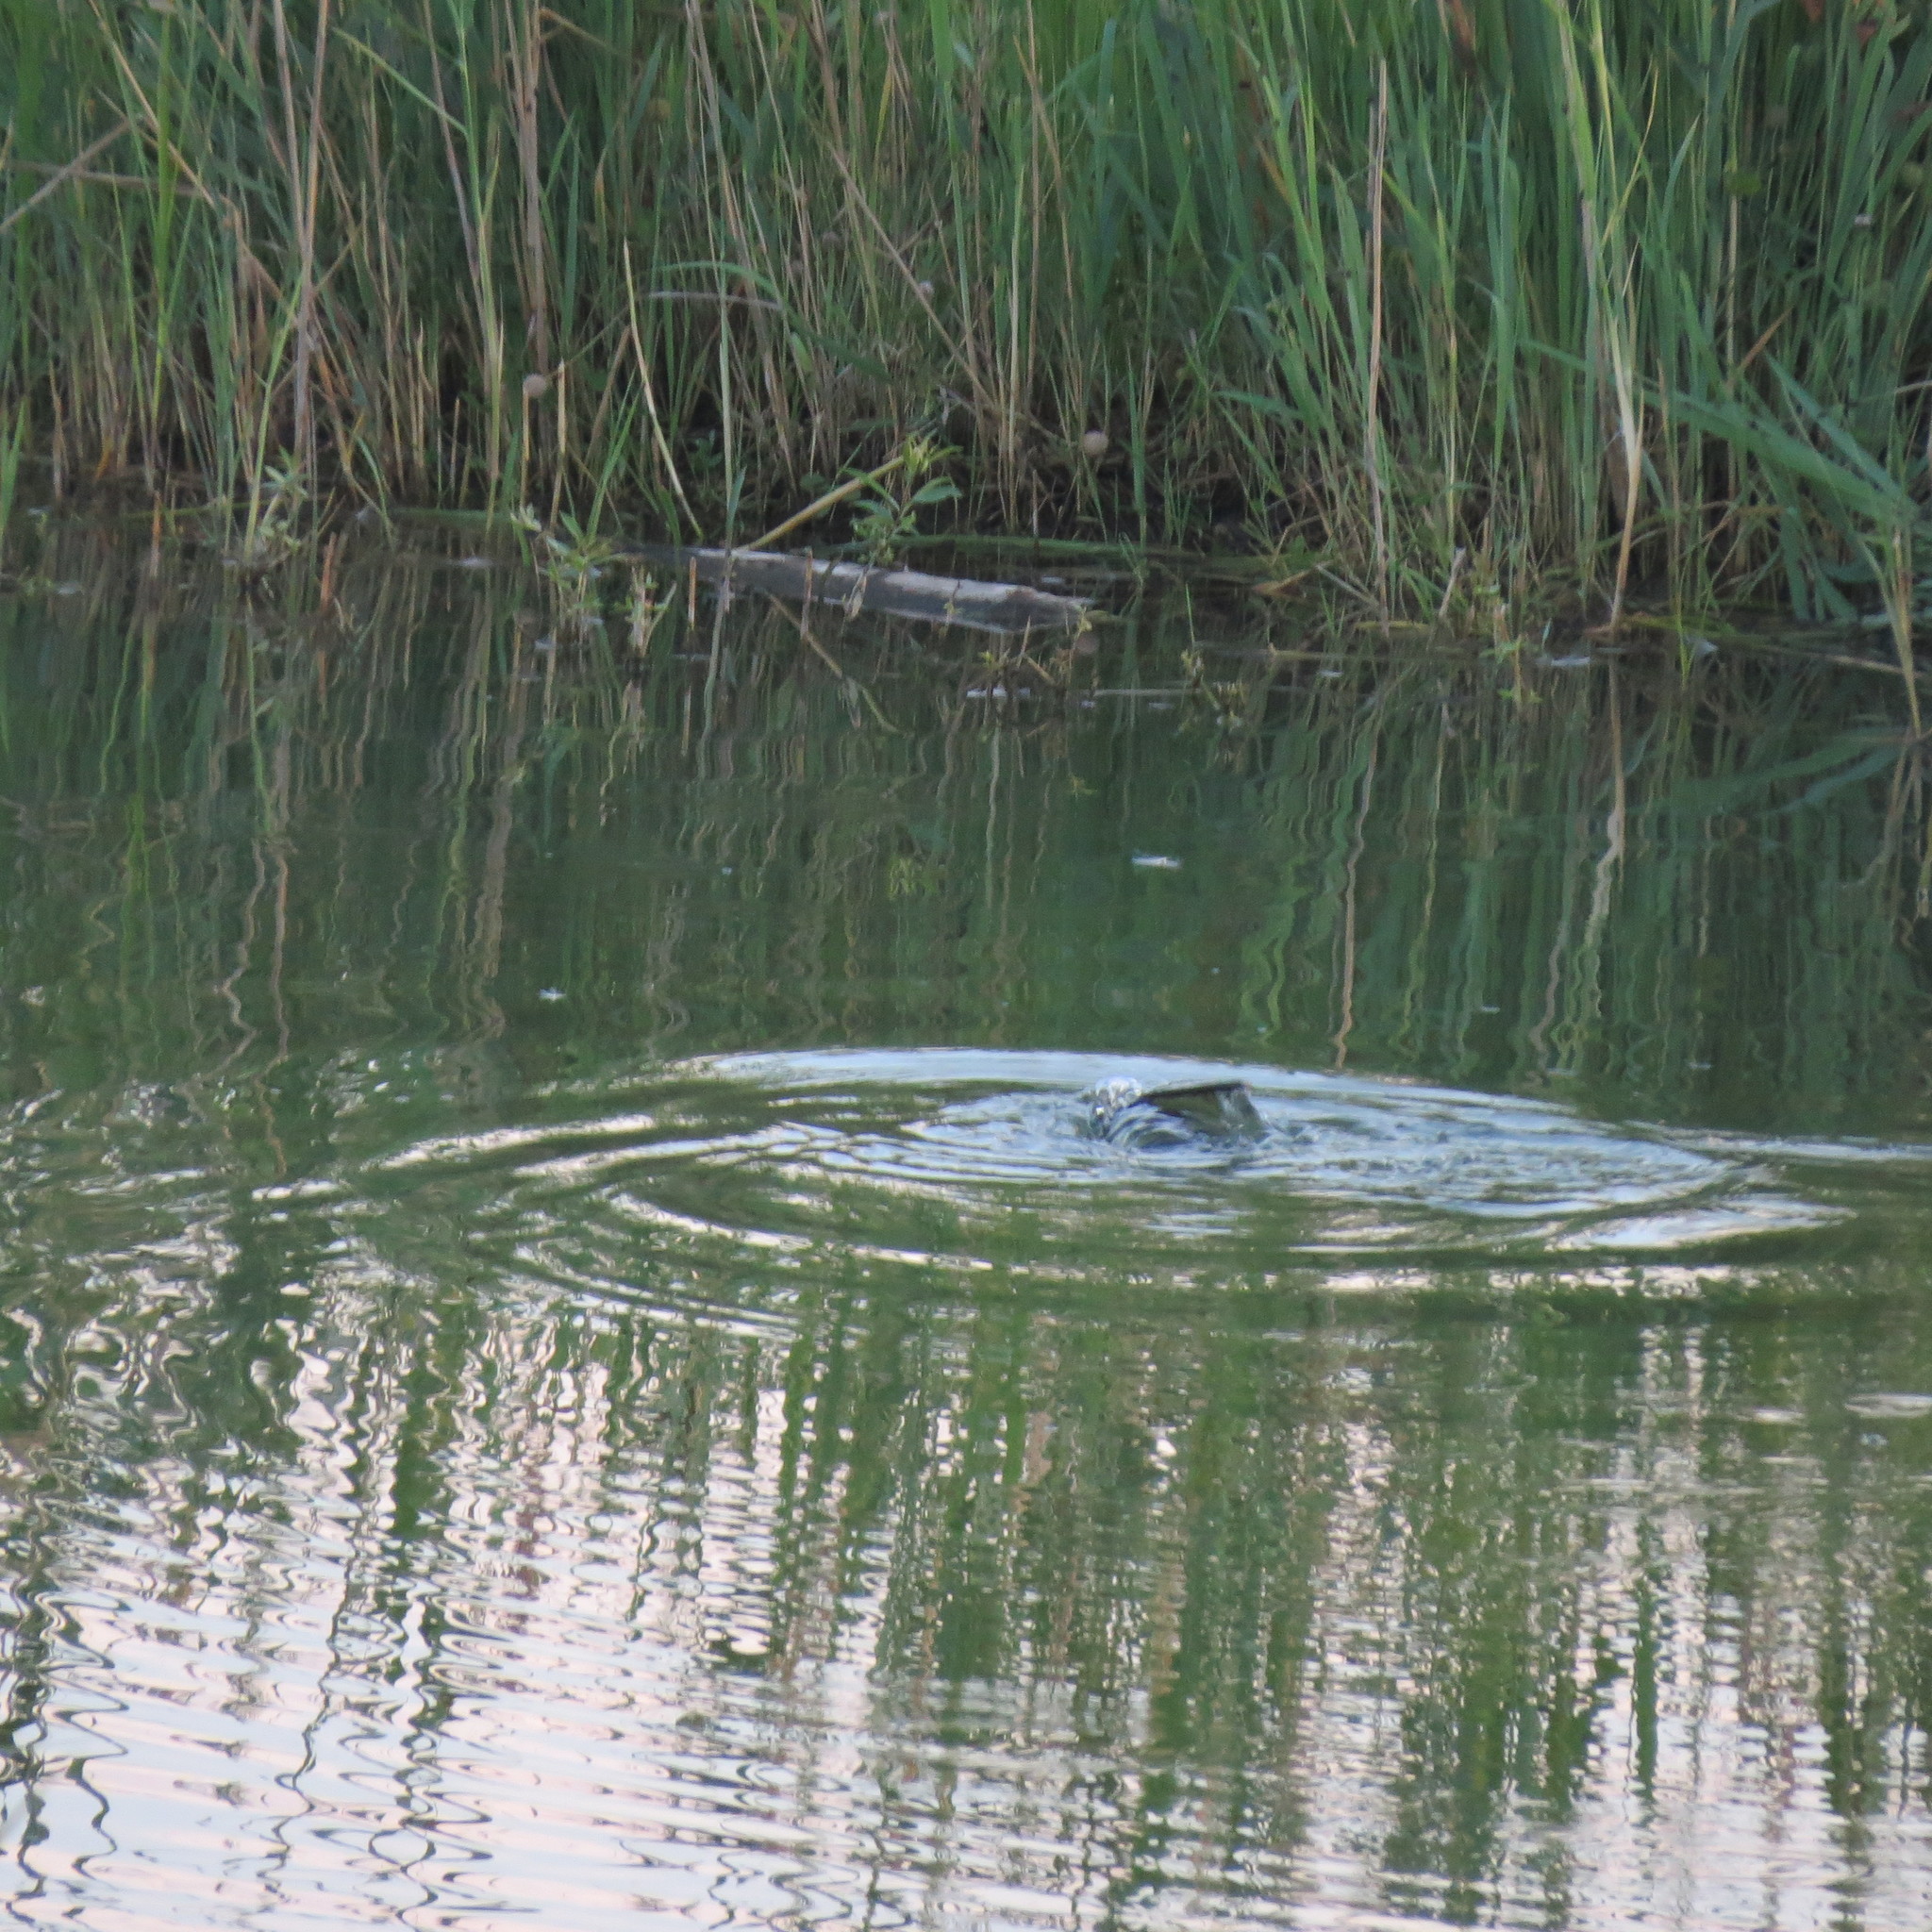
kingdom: Animalia
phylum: Chordata
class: Mammalia
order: Rodentia
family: Castoridae
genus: Castor
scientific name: Castor fiber
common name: Eurasian beaver
